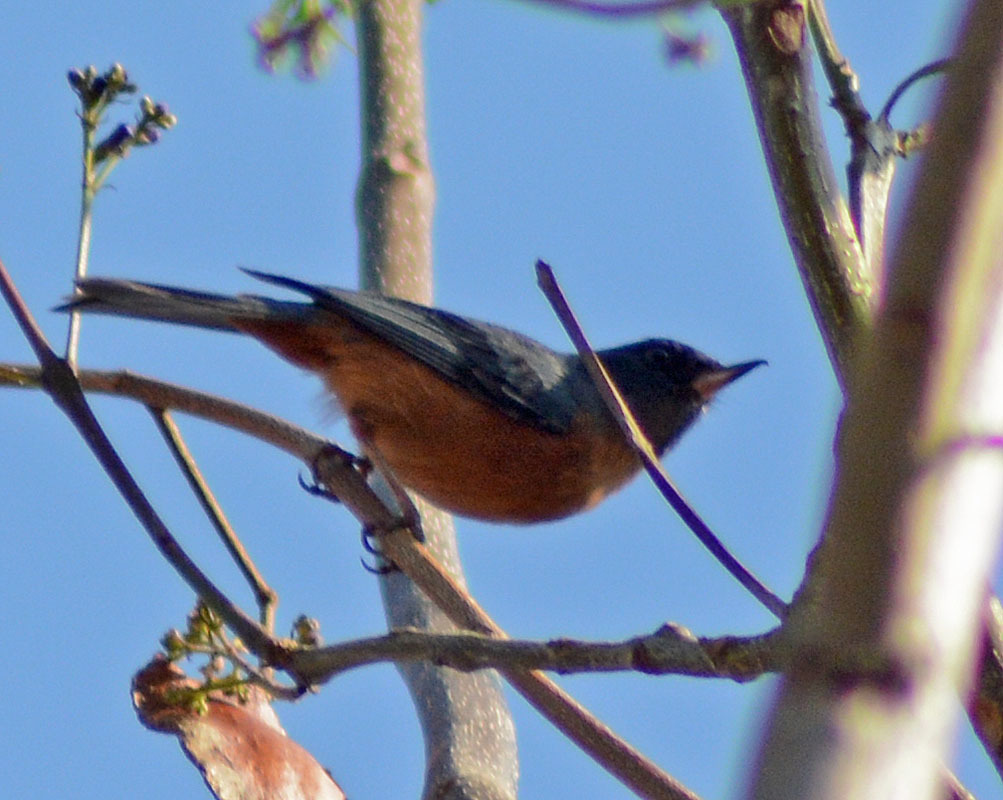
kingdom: Animalia
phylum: Chordata
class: Aves
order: Passeriformes
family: Thraupidae
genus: Diglossa
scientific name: Diglossa baritula
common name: Cinnamon-bellied flowerpiercer
